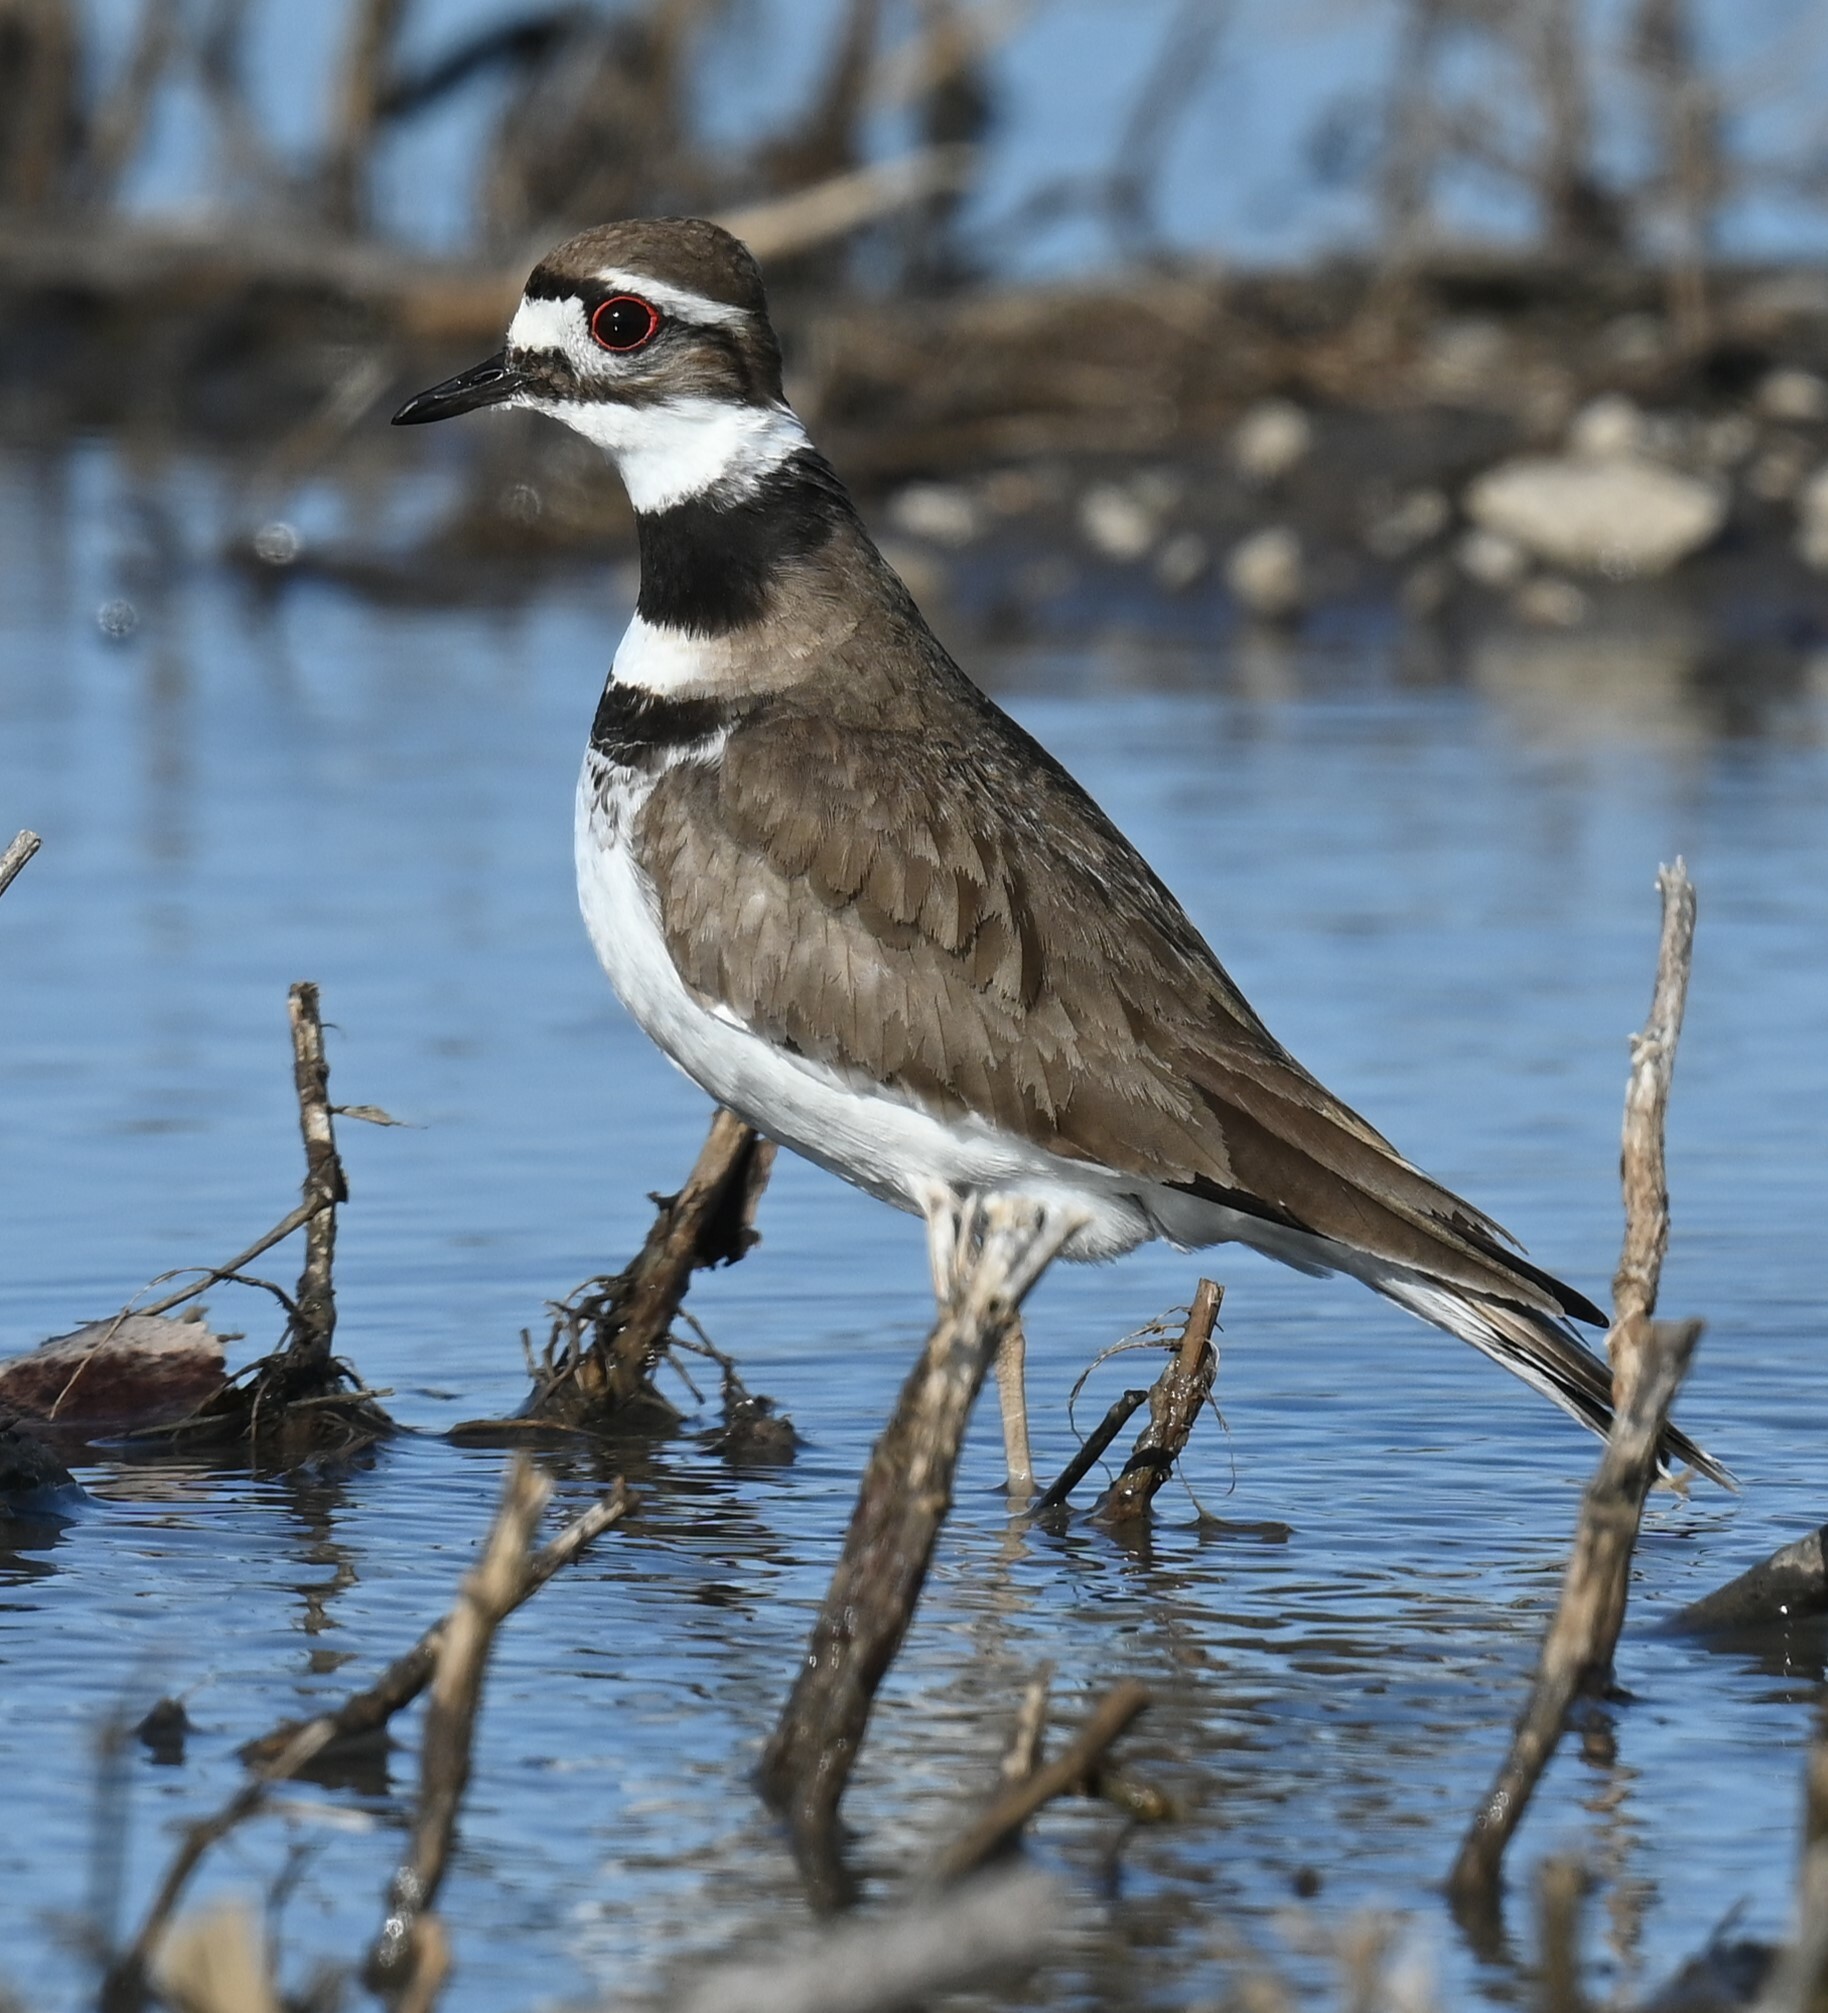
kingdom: Animalia
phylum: Chordata
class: Aves
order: Charadriiformes
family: Charadriidae
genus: Charadrius
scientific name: Charadrius vociferus
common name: Killdeer
